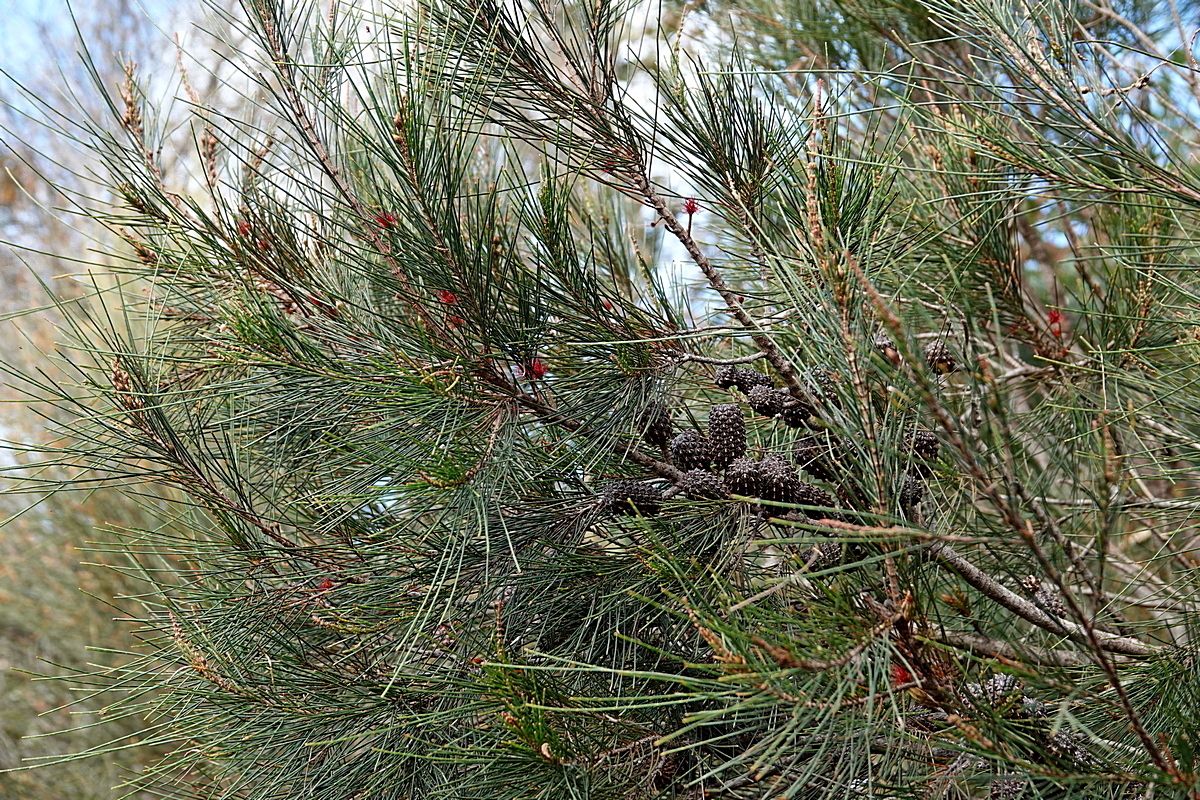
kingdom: Plantae
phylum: Tracheophyta
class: Magnoliopsida
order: Fagales
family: Casuarinaceae
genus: Allocasuarina
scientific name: Allocasuarina littoralis
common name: Black she-oak
